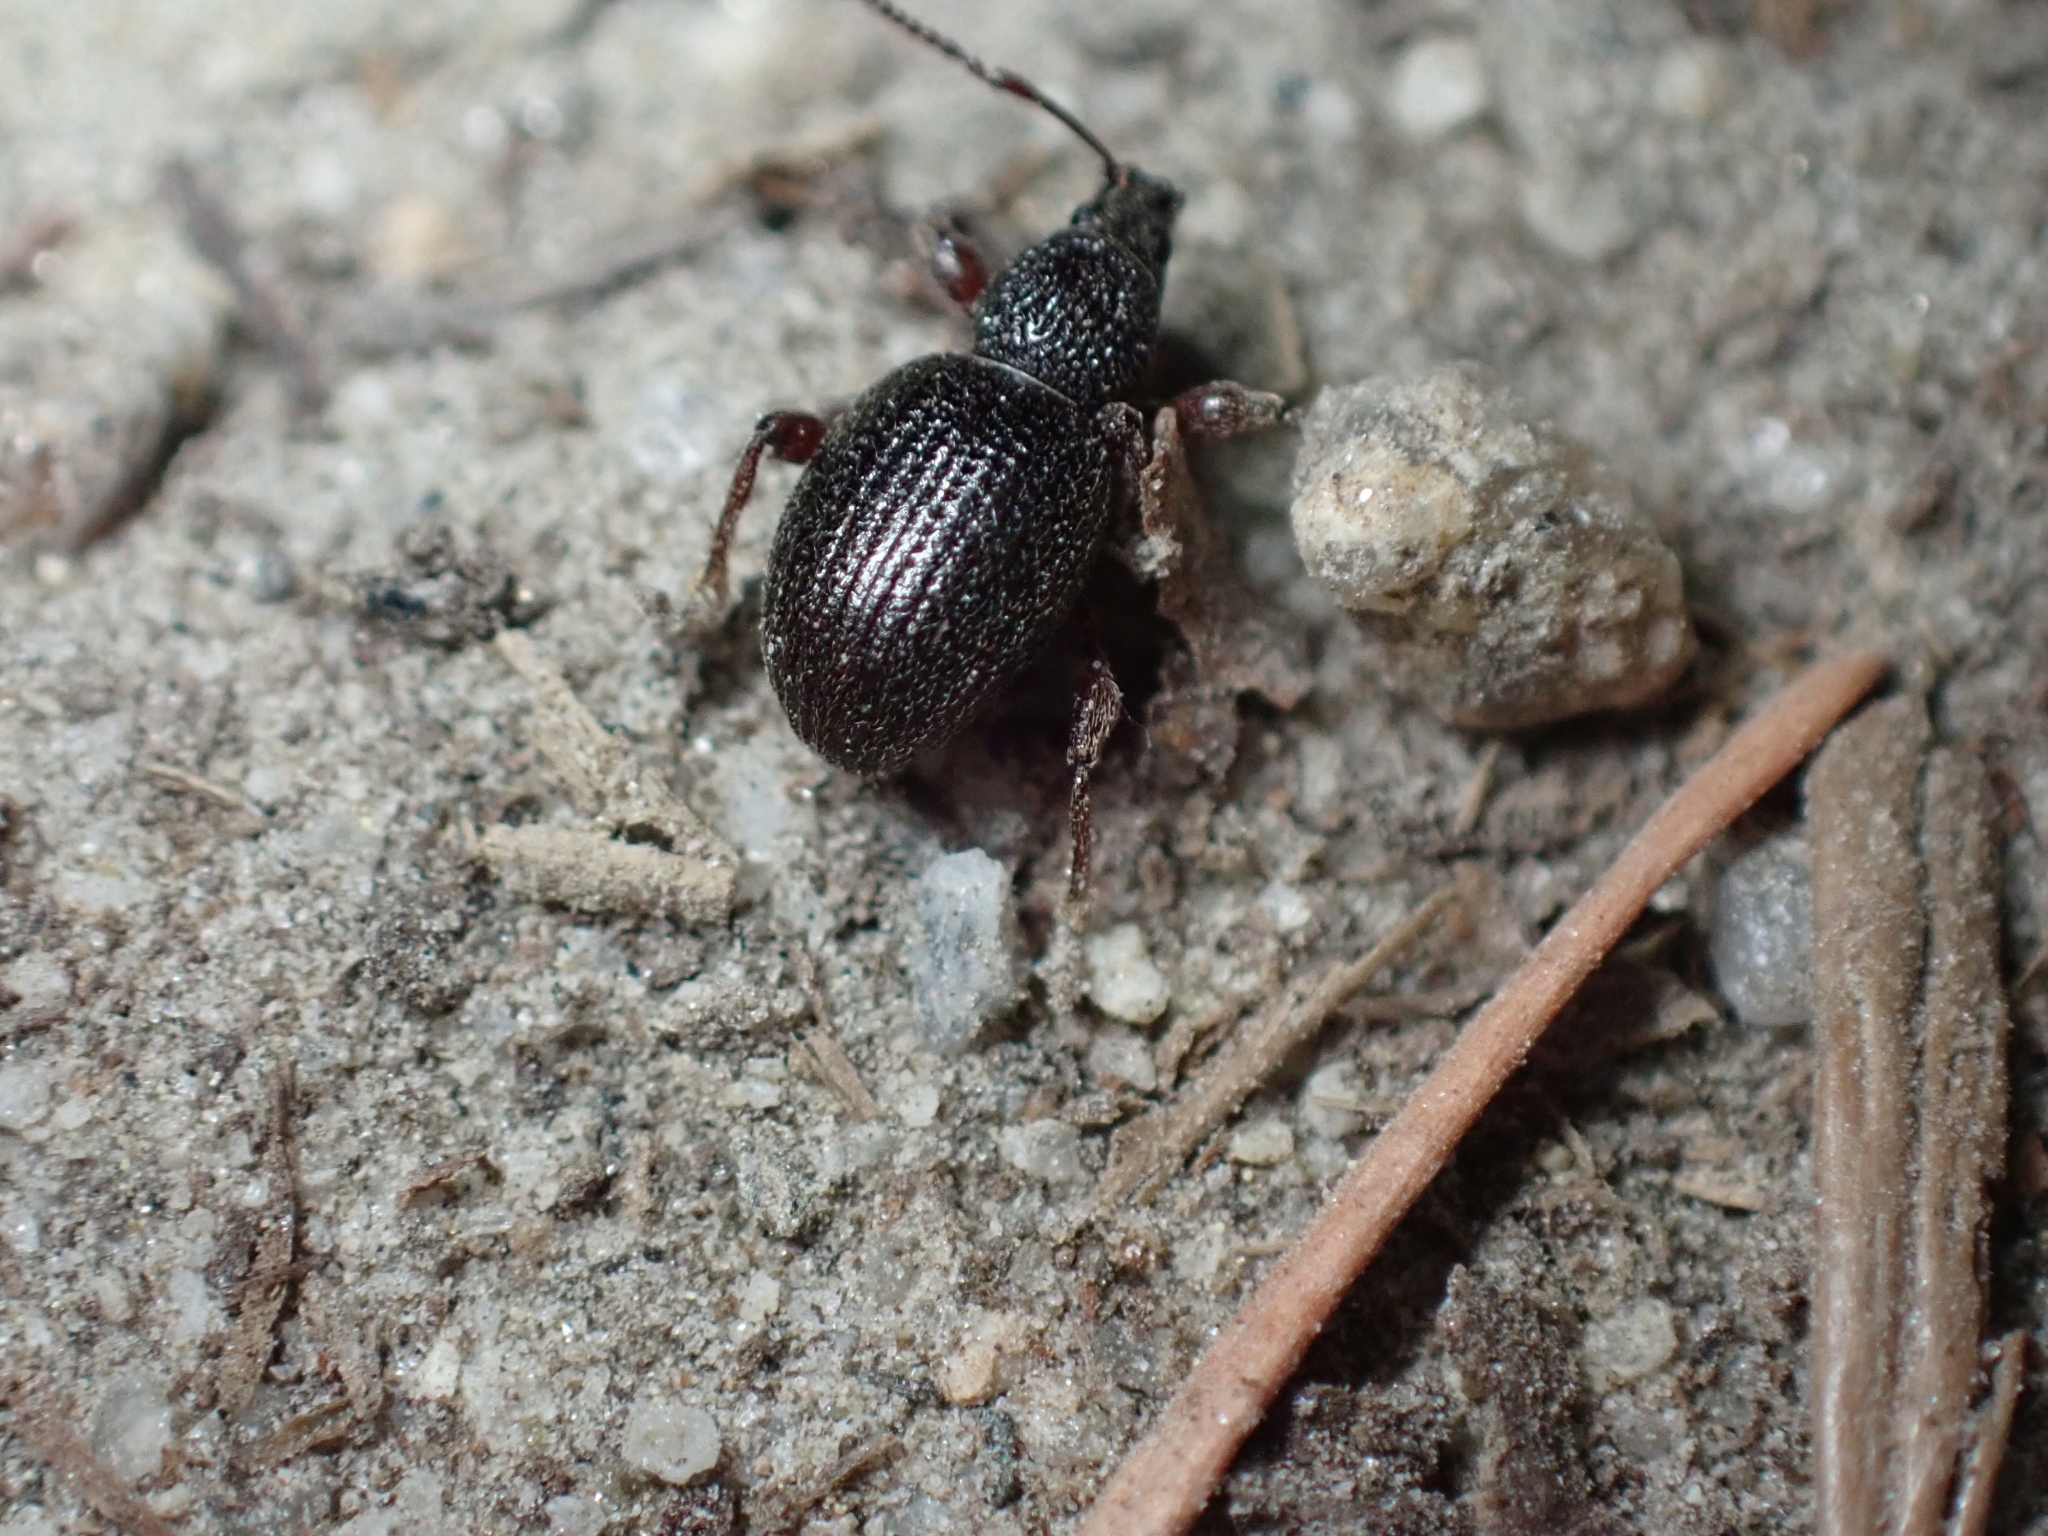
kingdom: Animalia
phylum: Arthropoda
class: Insecta
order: Coleoptera
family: Curculionidae
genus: Otiorhynchus
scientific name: Otiorhynchus ovatus
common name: Strawberry root weevil
